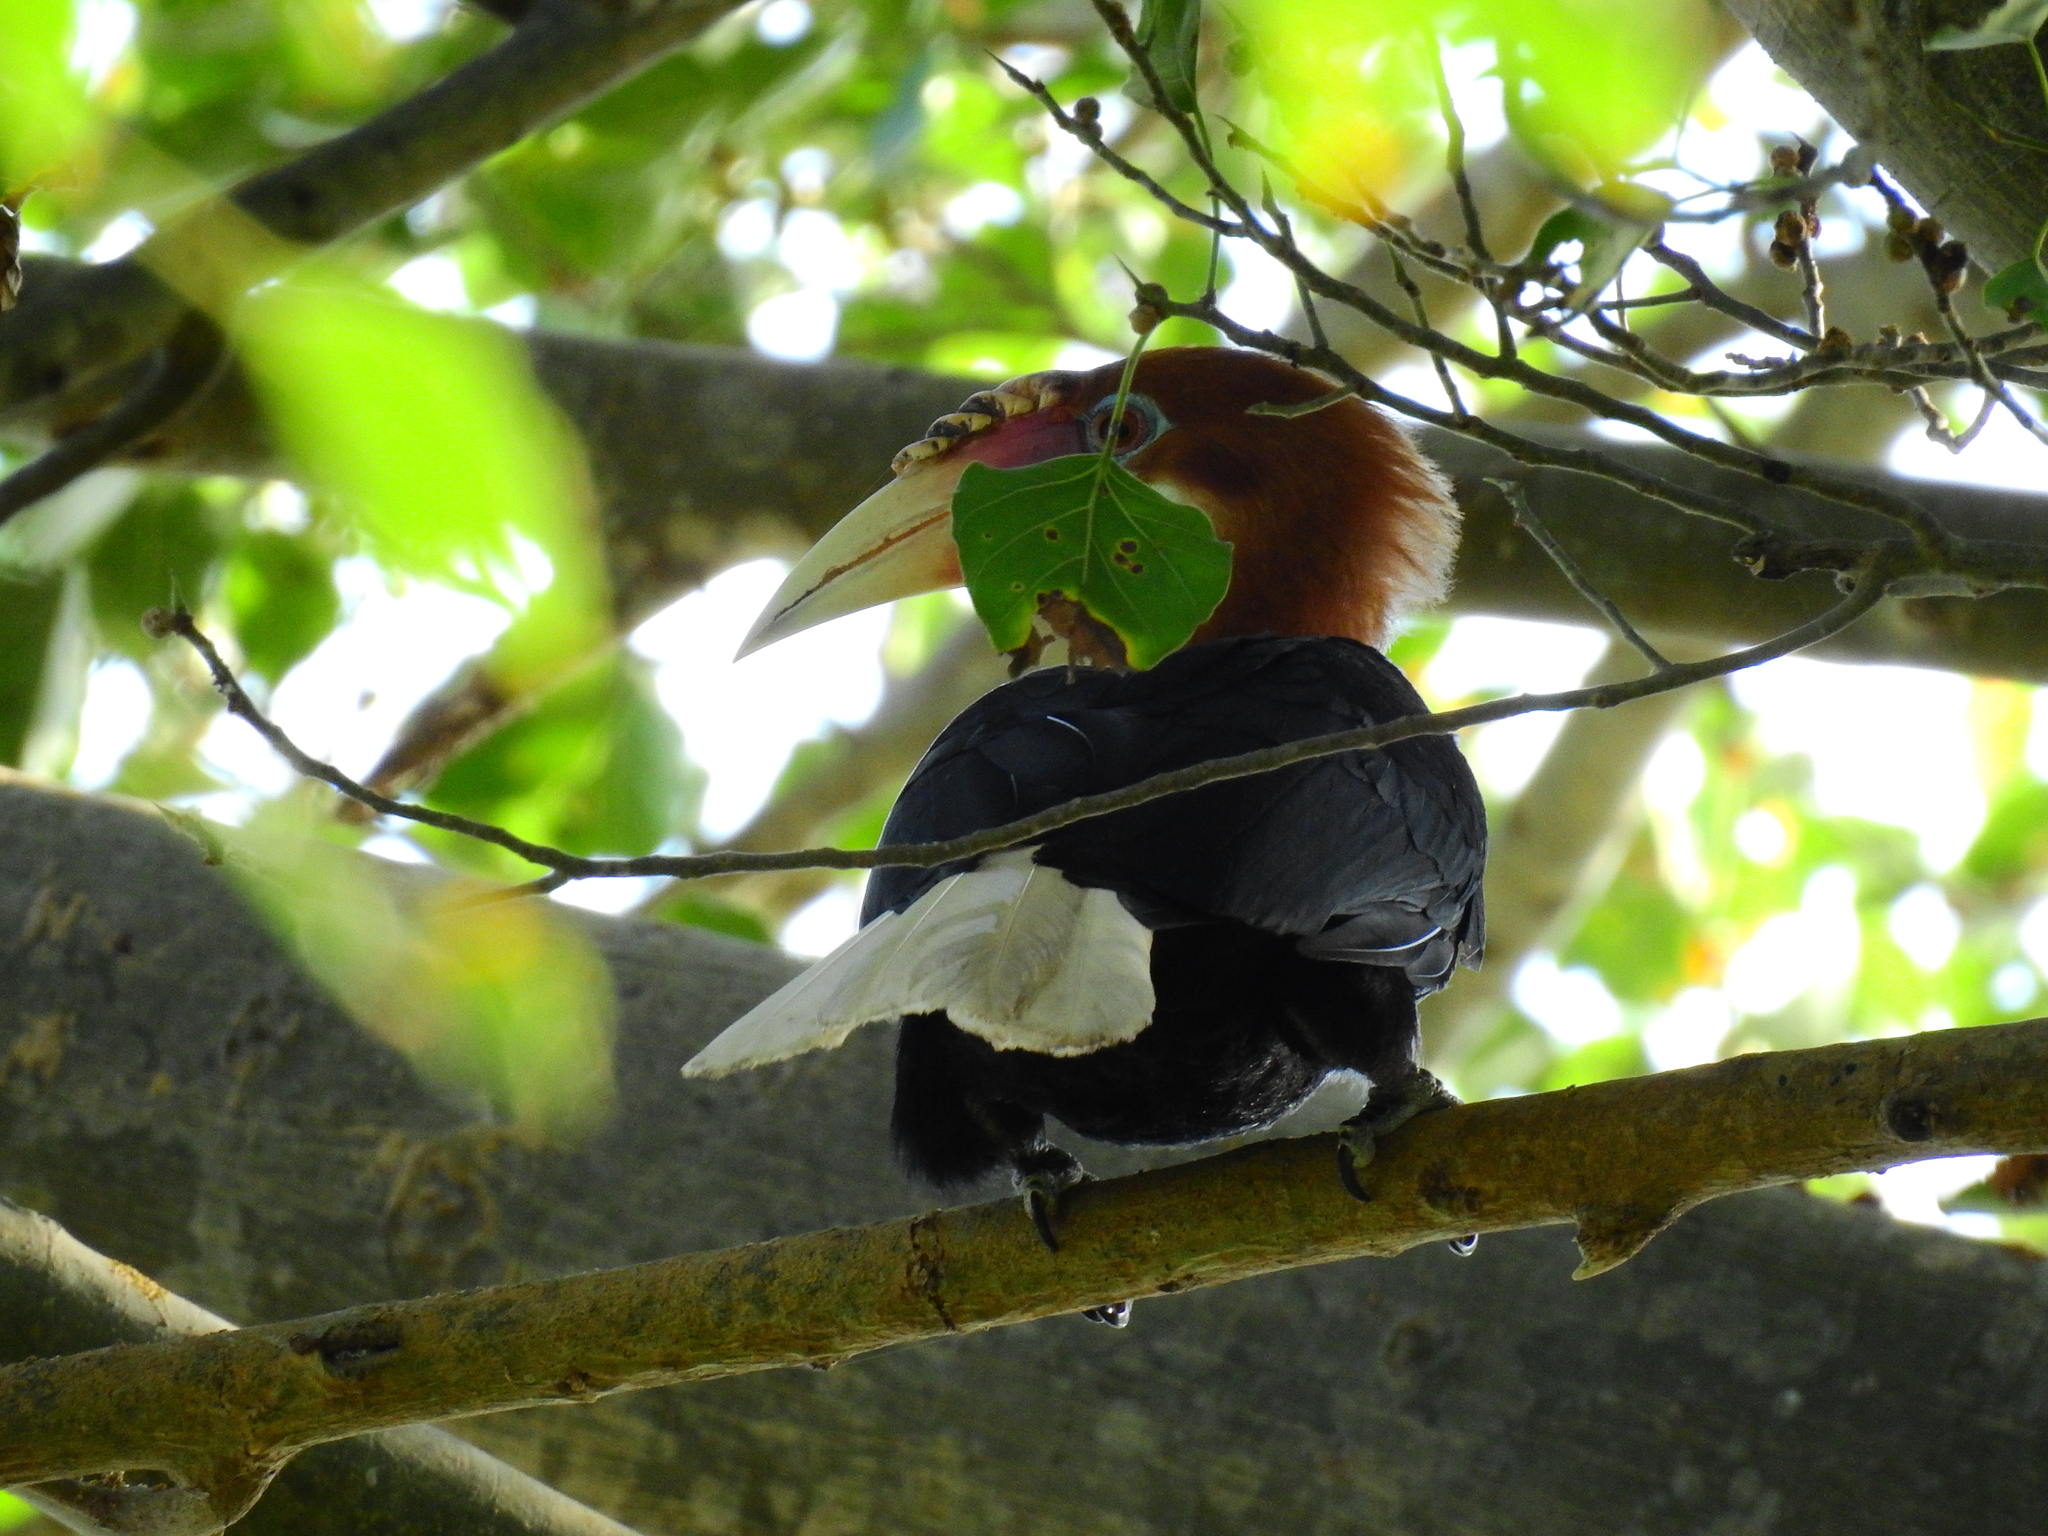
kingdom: Animalia
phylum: Chordata
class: Aves
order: Bucerotiformes
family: Bucerotidae
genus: Rhyticeros
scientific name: Rhyticeros narcondami
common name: Narcondam hornbill
